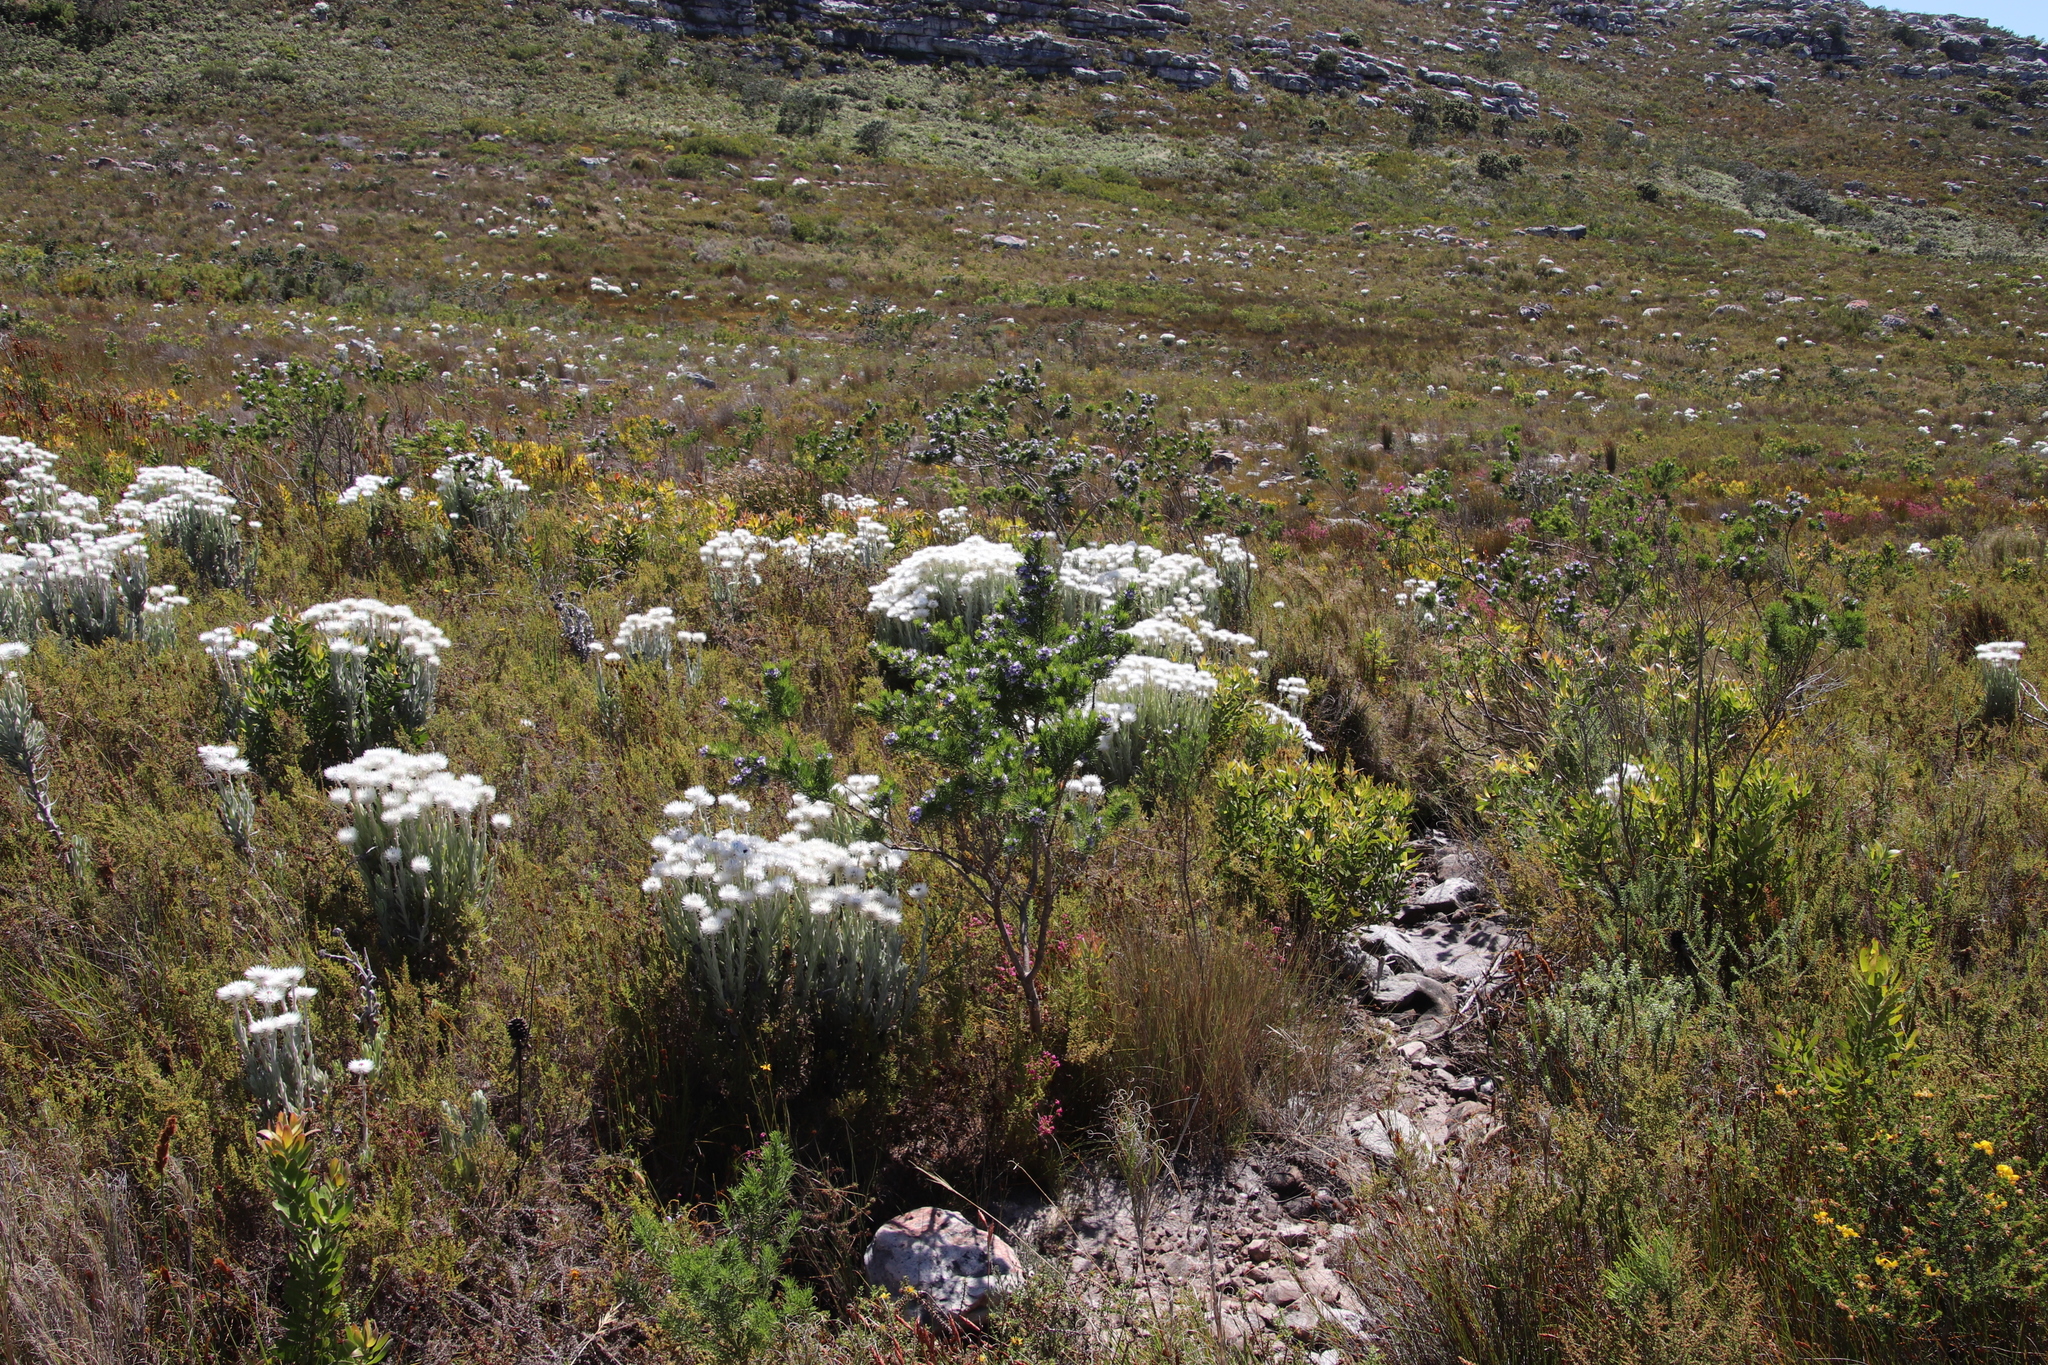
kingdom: Plantae
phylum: Tracheophyta
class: Magnoliopsida
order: Fabales
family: Fabaceae
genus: Psoralea
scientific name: Psoralea pinnata
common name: African scurfpea
